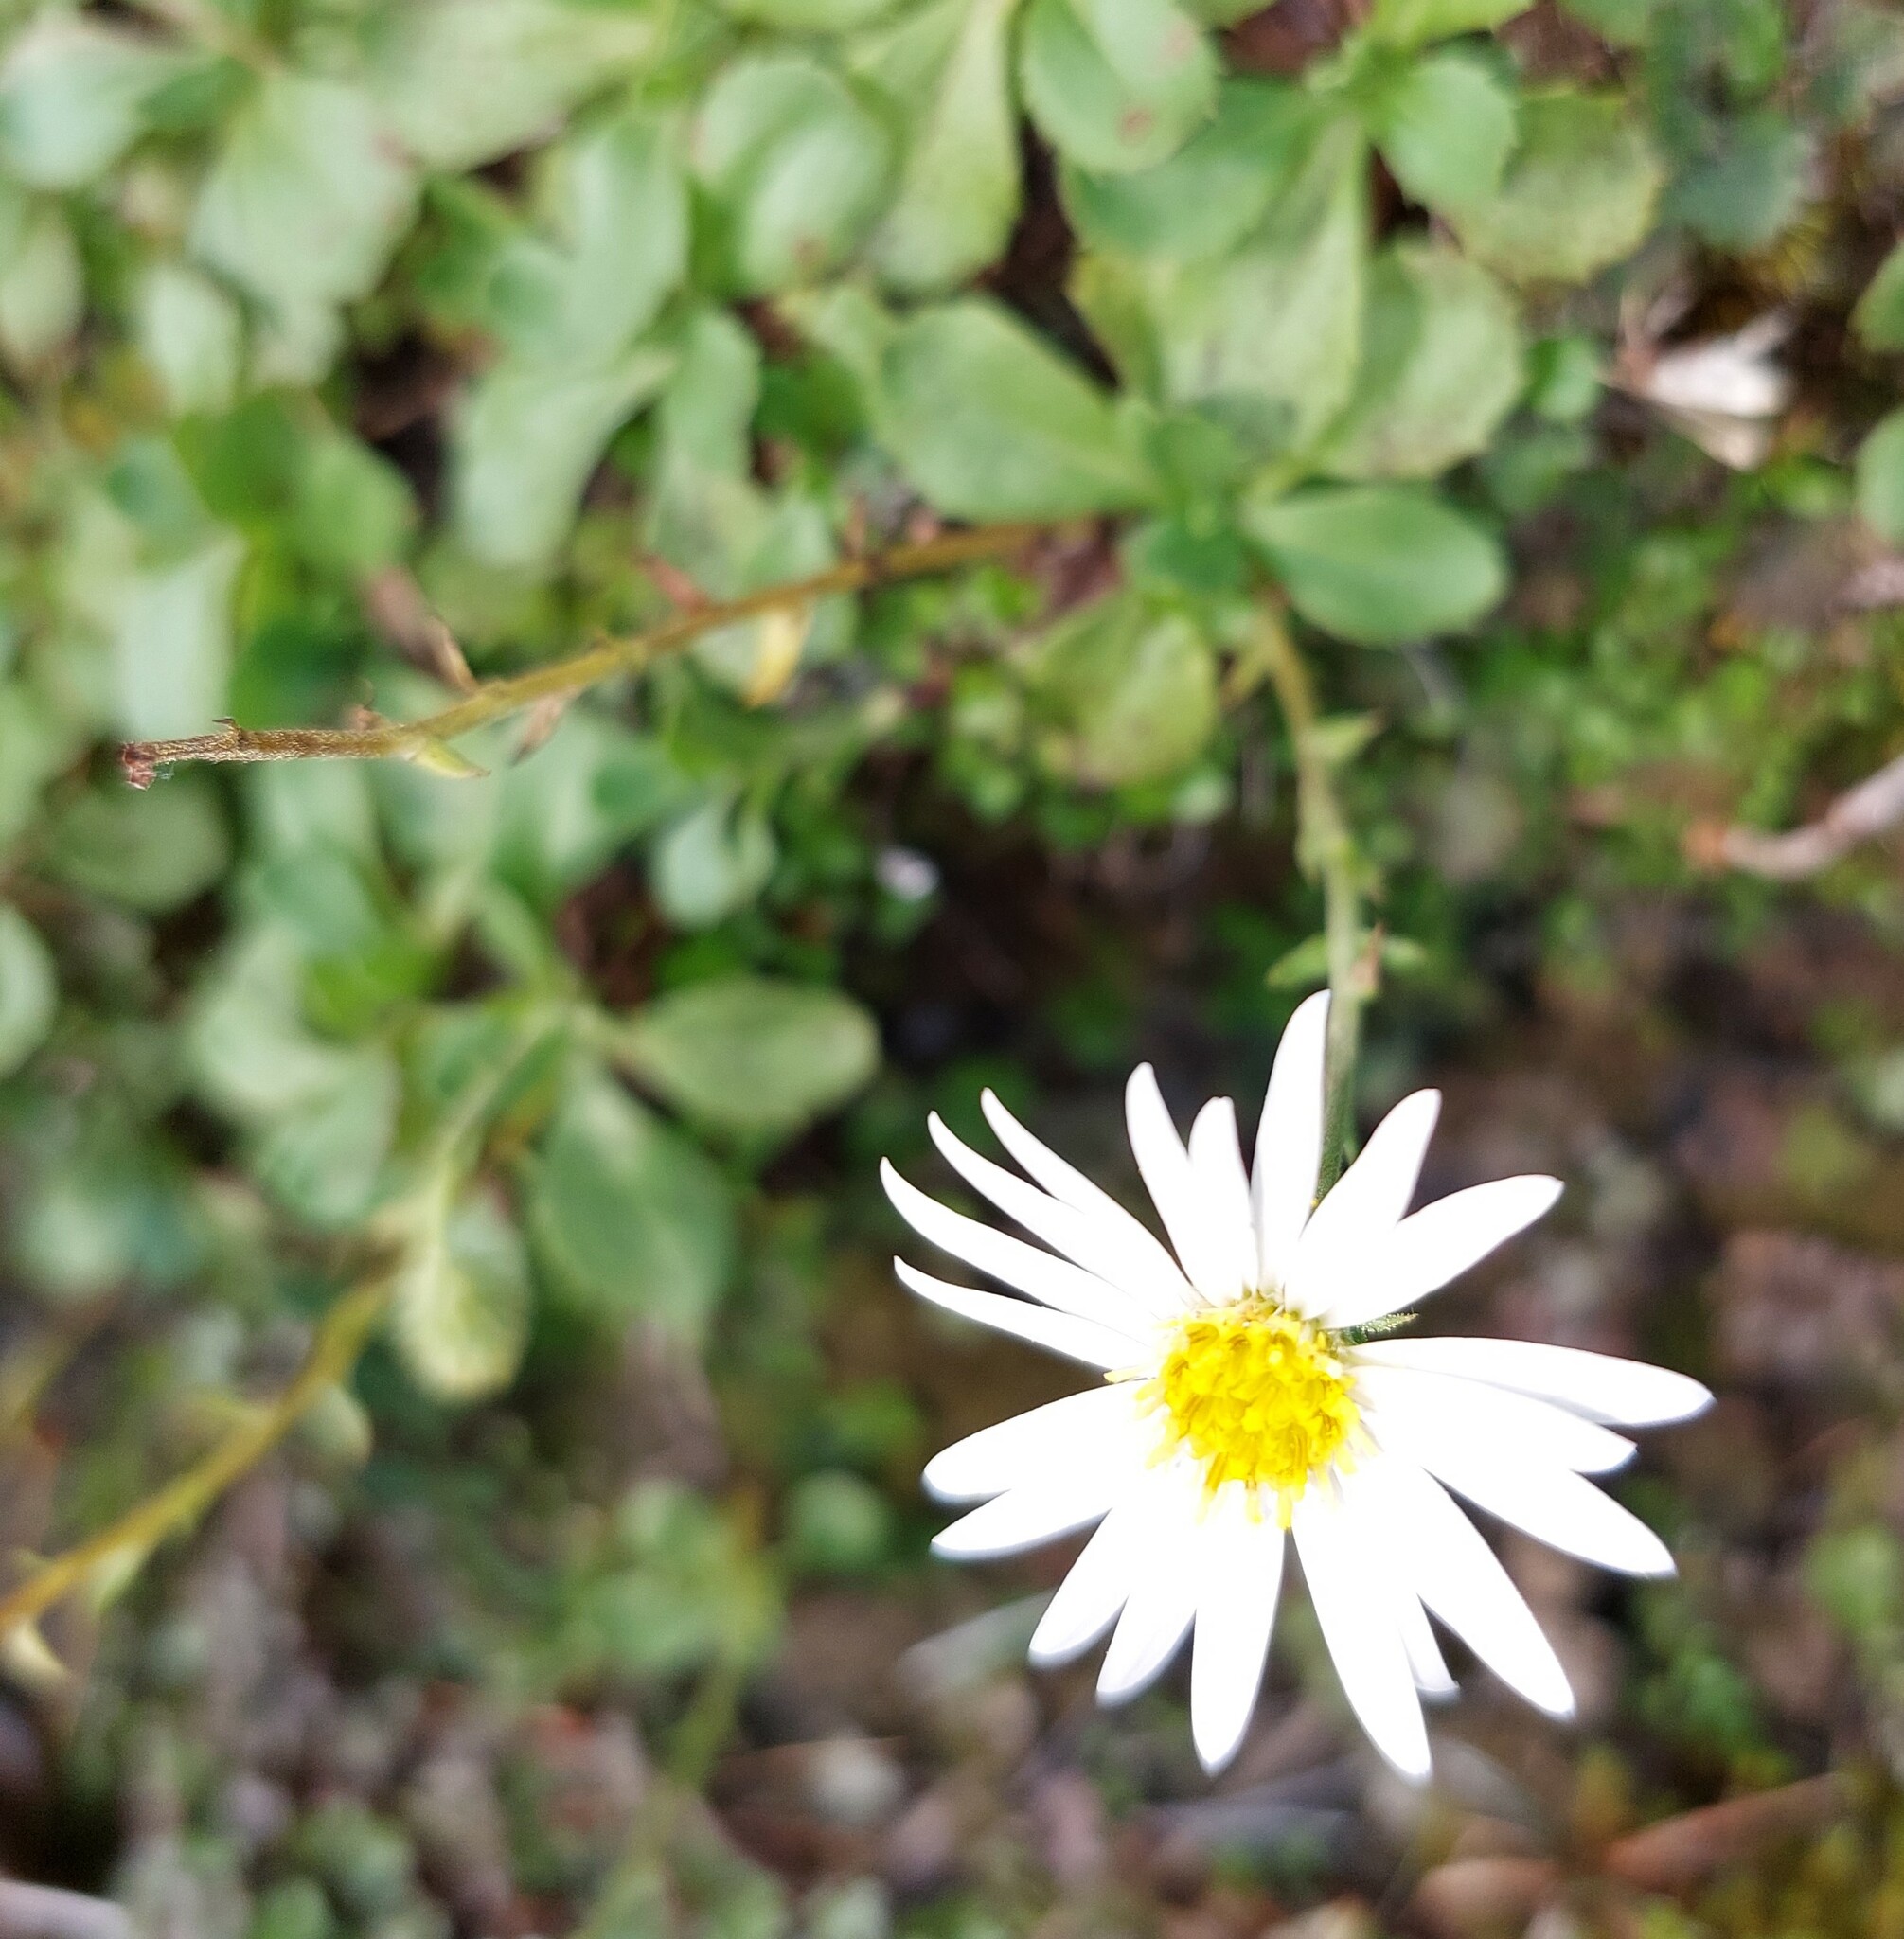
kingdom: Plantae
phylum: Tracheophyta
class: Magnoliopsida
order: Asterales
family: Asteraceae
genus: Celmisia
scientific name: Celmisia glandulosa
